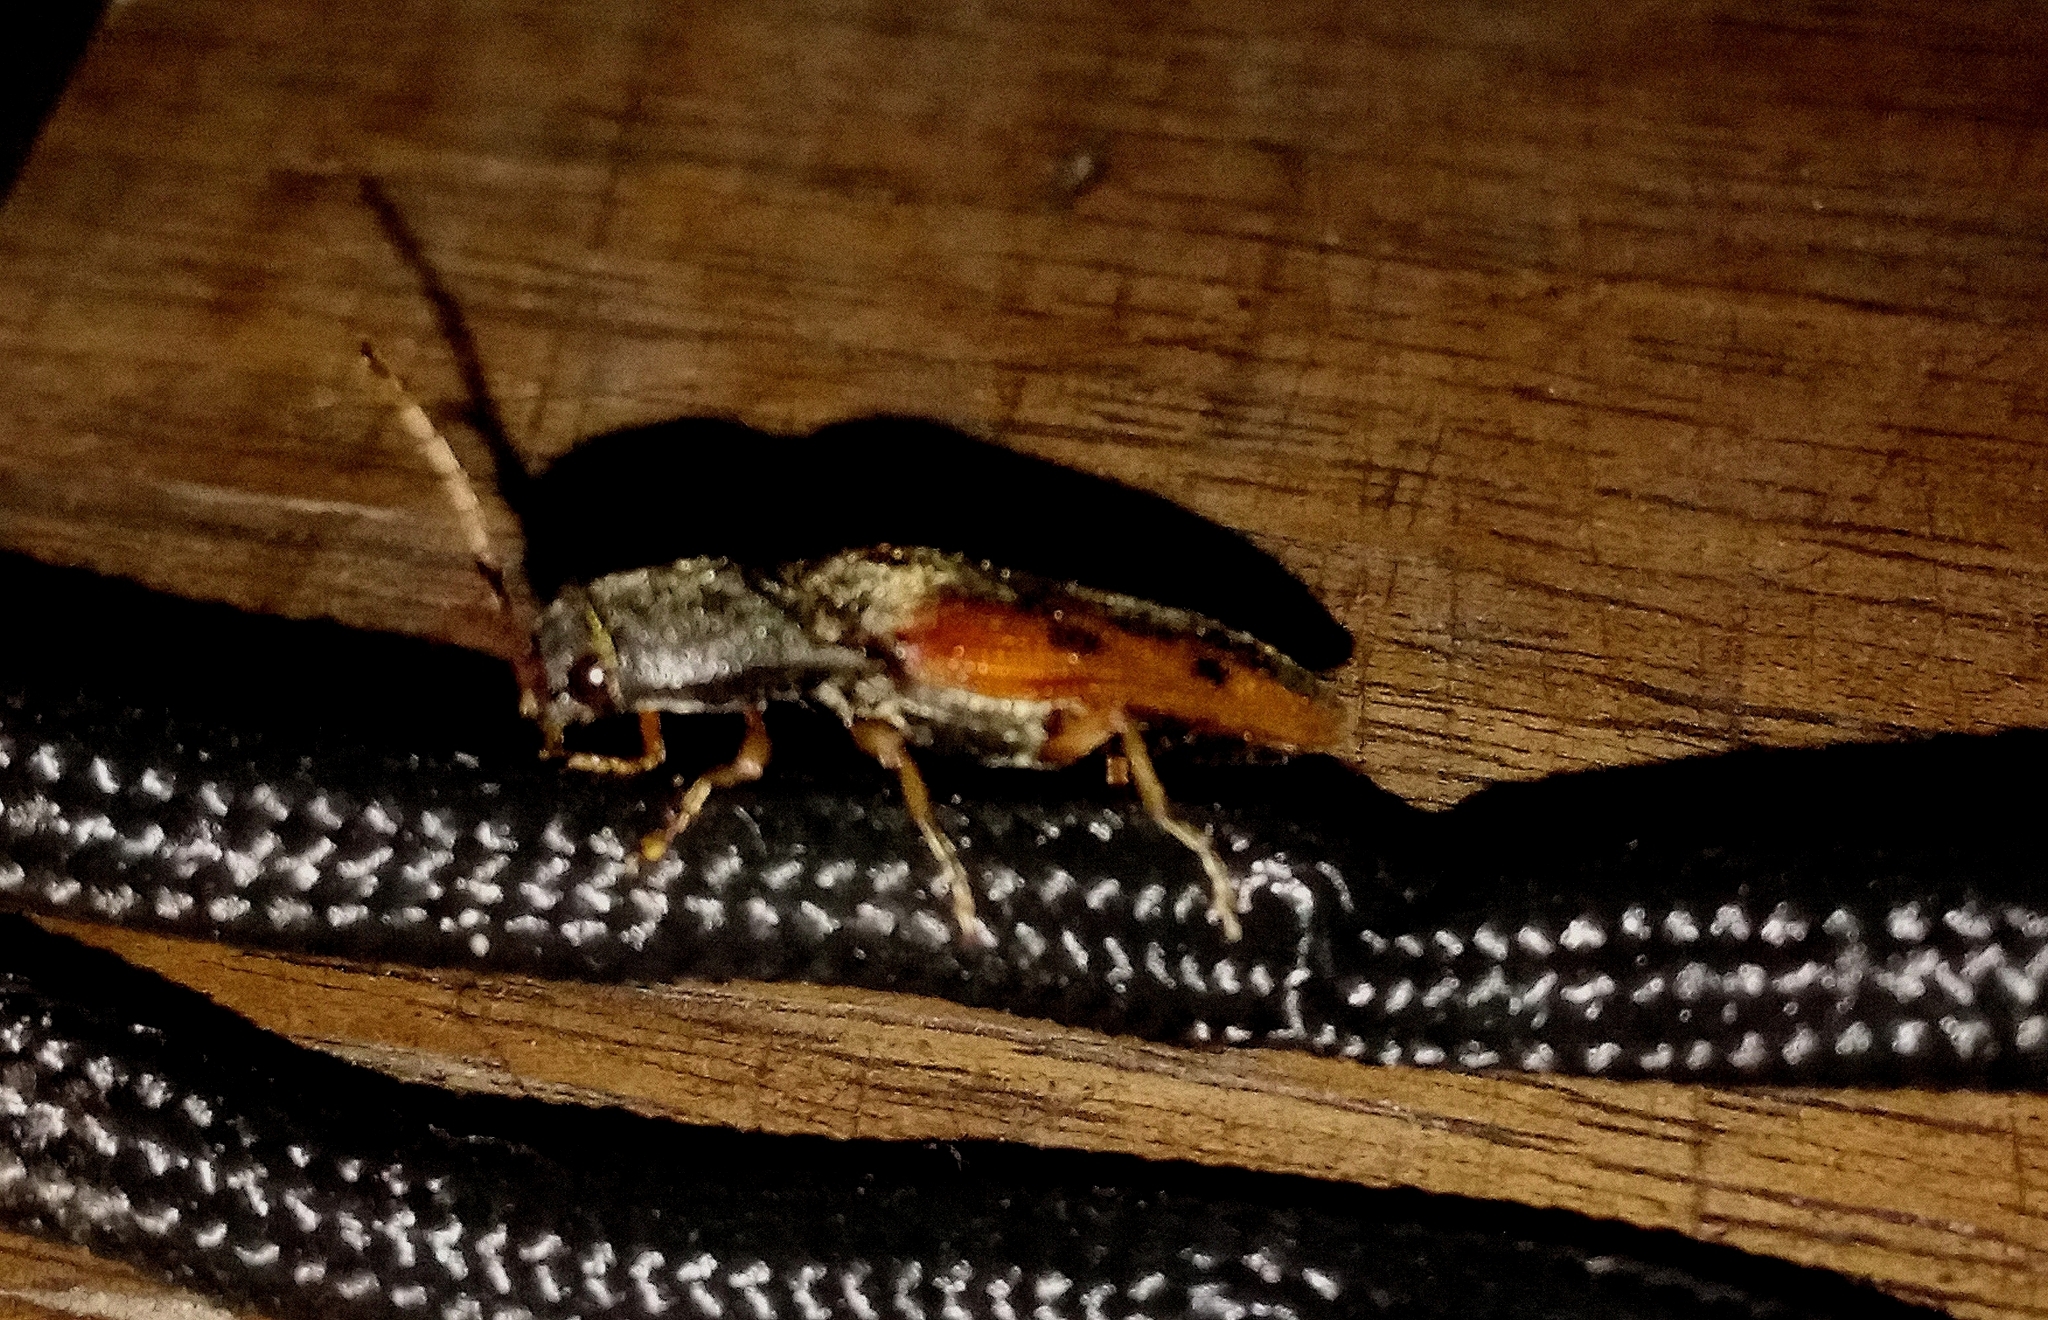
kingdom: Animalia
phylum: Arthropoda
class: Insecta
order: Coleoptera
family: Elateridae
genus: Monocrepidius
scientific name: Monocrepidius
